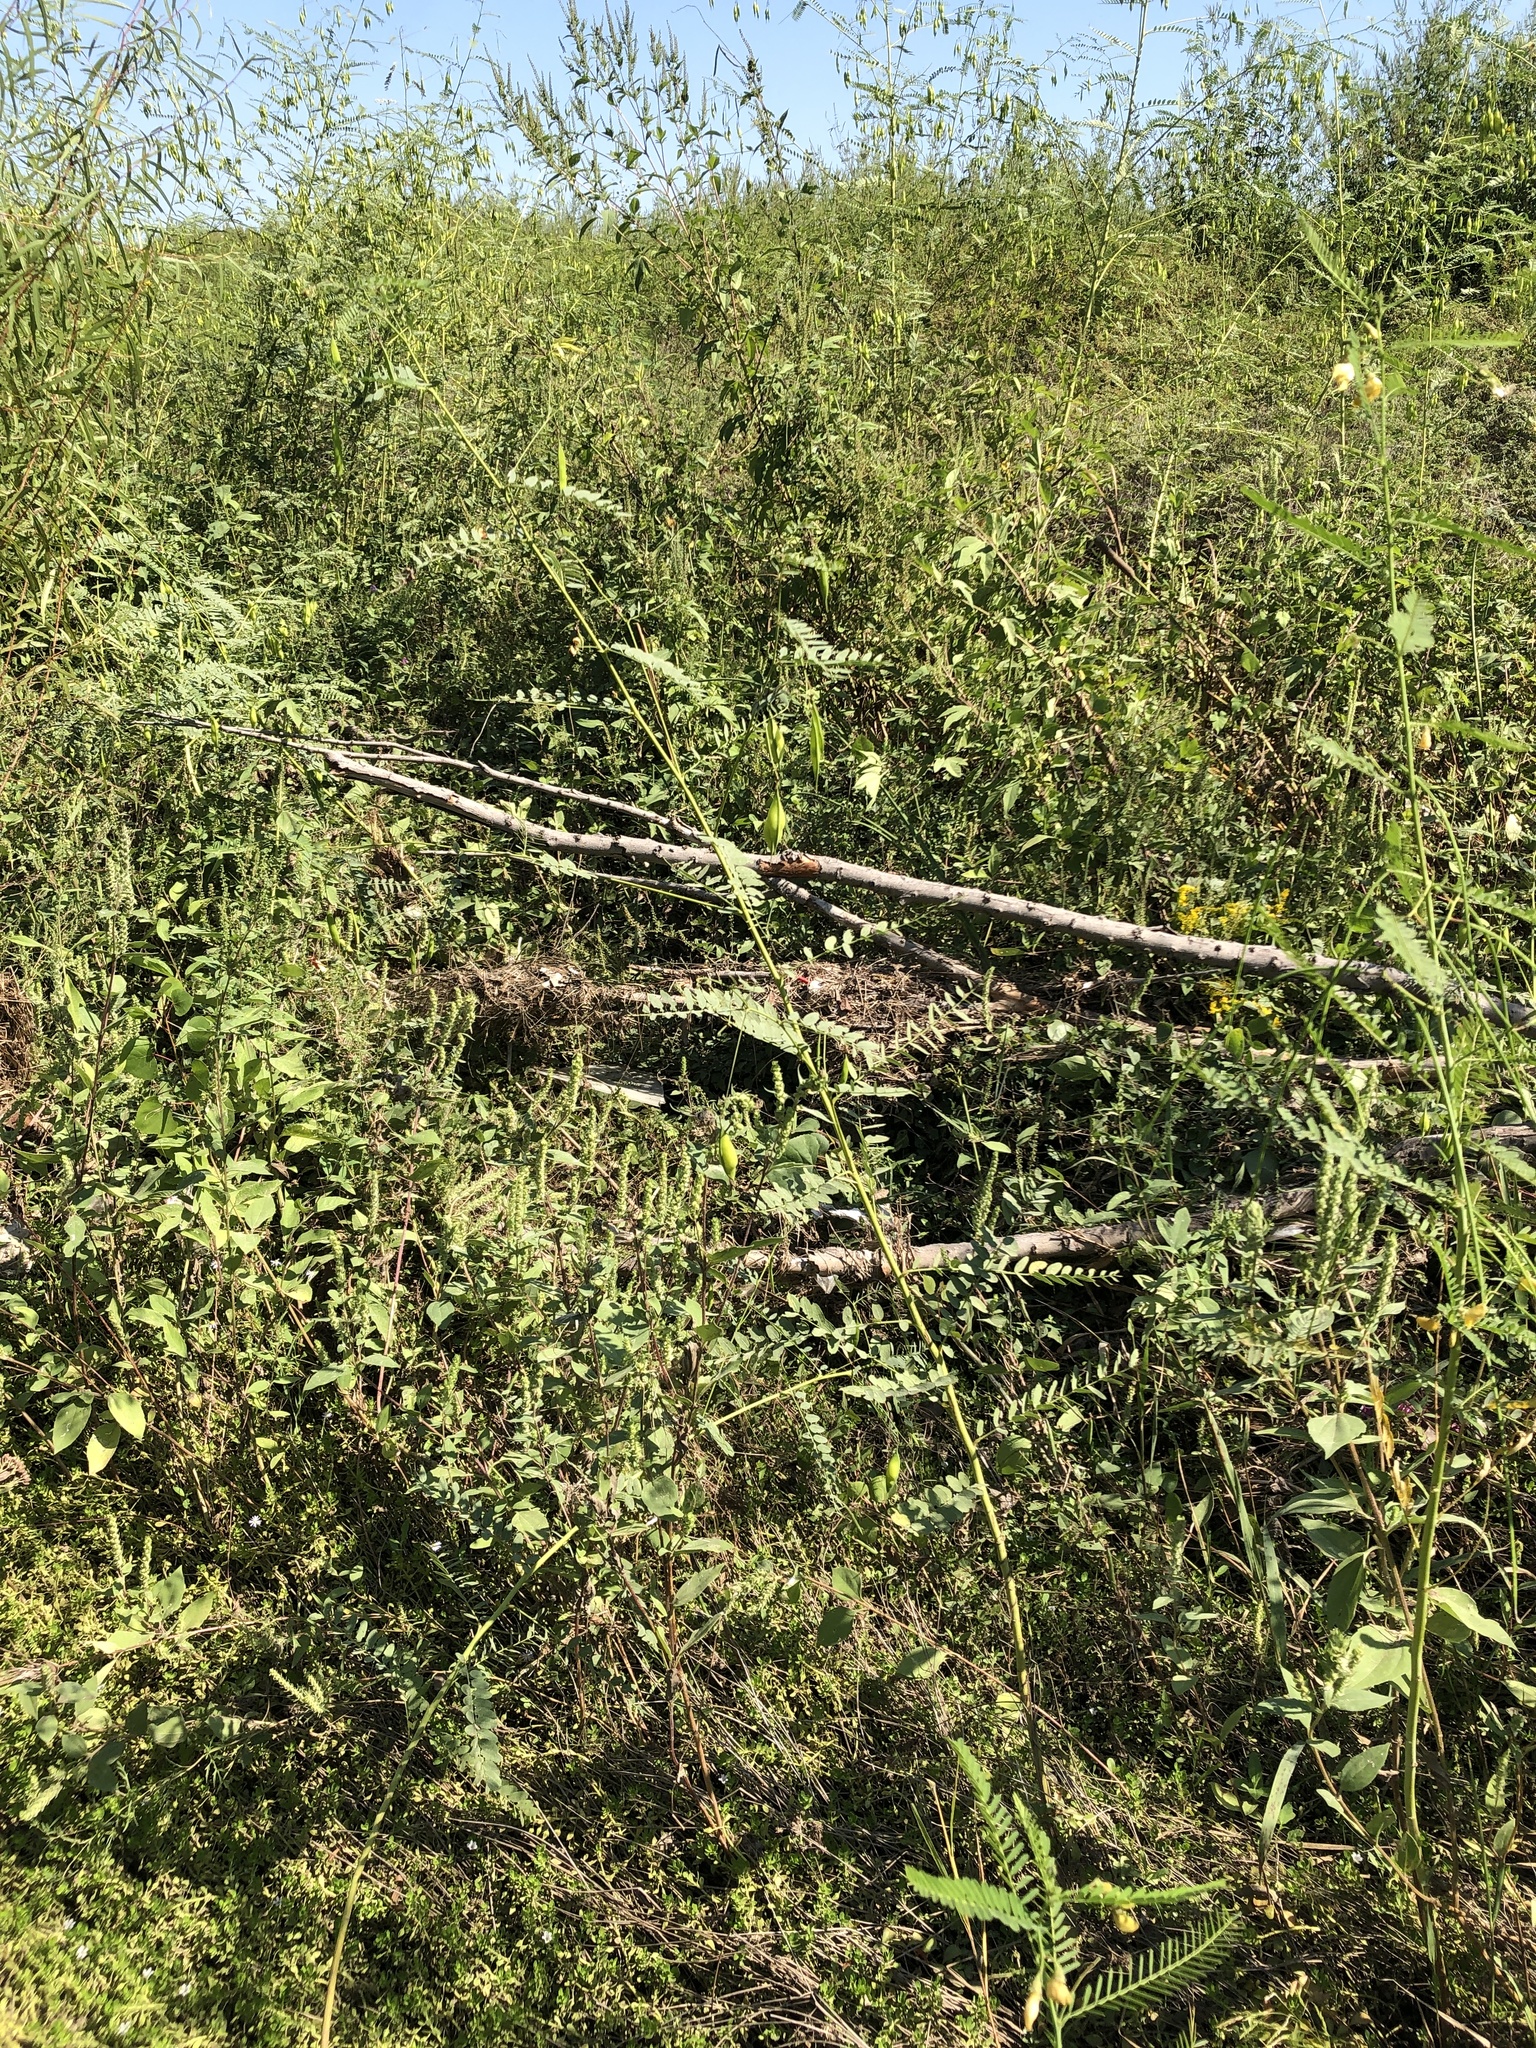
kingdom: Plantae
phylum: Tracheophyta
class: Magnoliopsida
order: Fabales
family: Fabaceae
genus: Sesbania
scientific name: Sesbania vesicaria
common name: Bagpod
